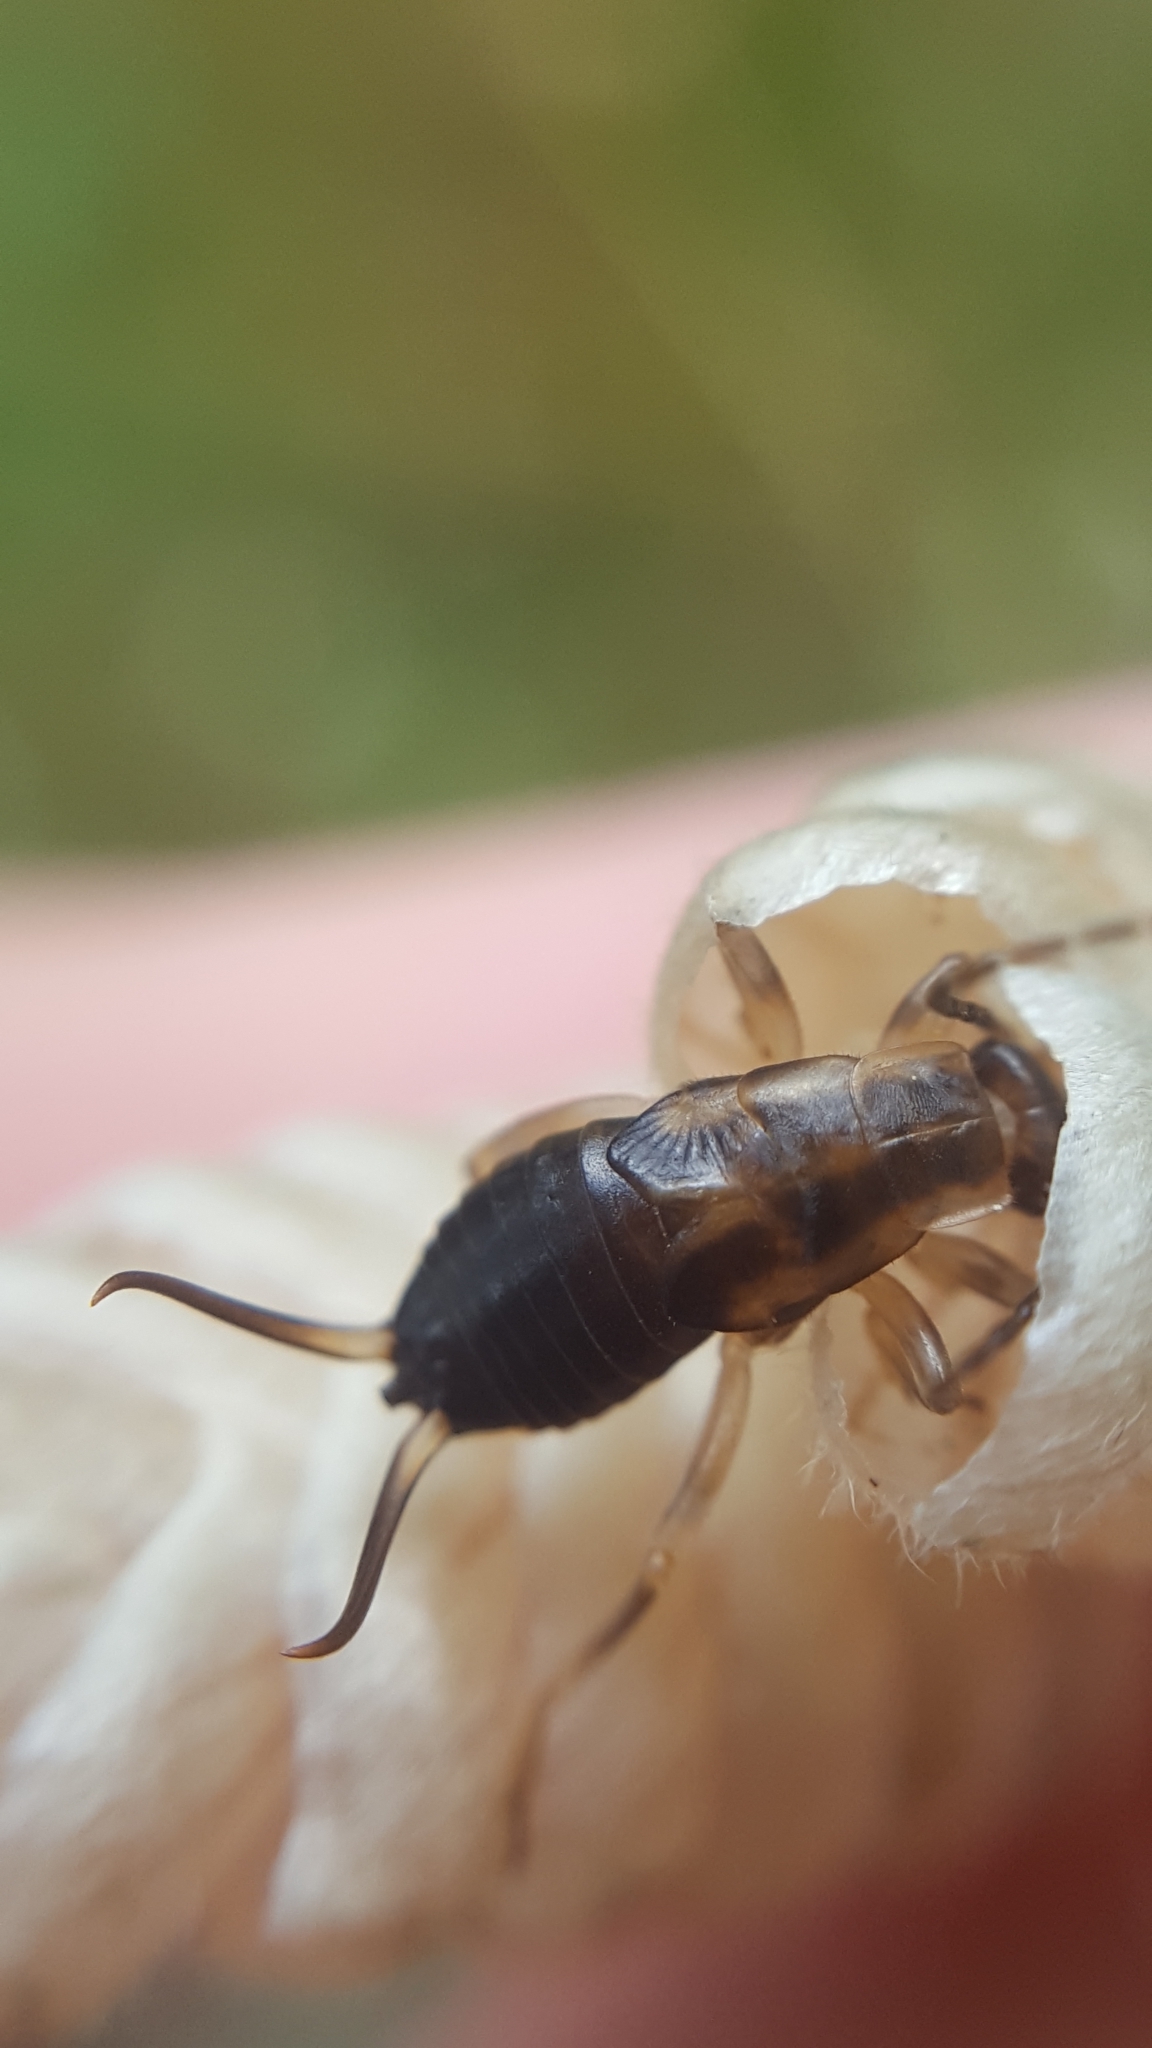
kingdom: Animalia
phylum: Arthropoda
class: Insecta
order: Dermaptera
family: Forficulidae
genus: Forficula
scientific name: Forficula
